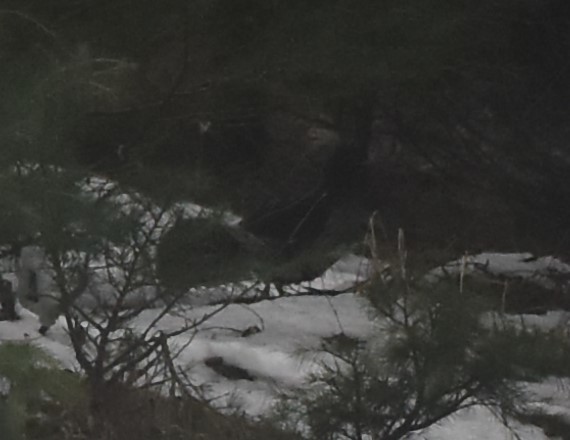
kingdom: Animalia
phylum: Chordata
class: Aves
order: Galliformes
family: Phasianidae
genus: Lophura
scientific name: Lophura leucomelanos
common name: Kalij pheasant
